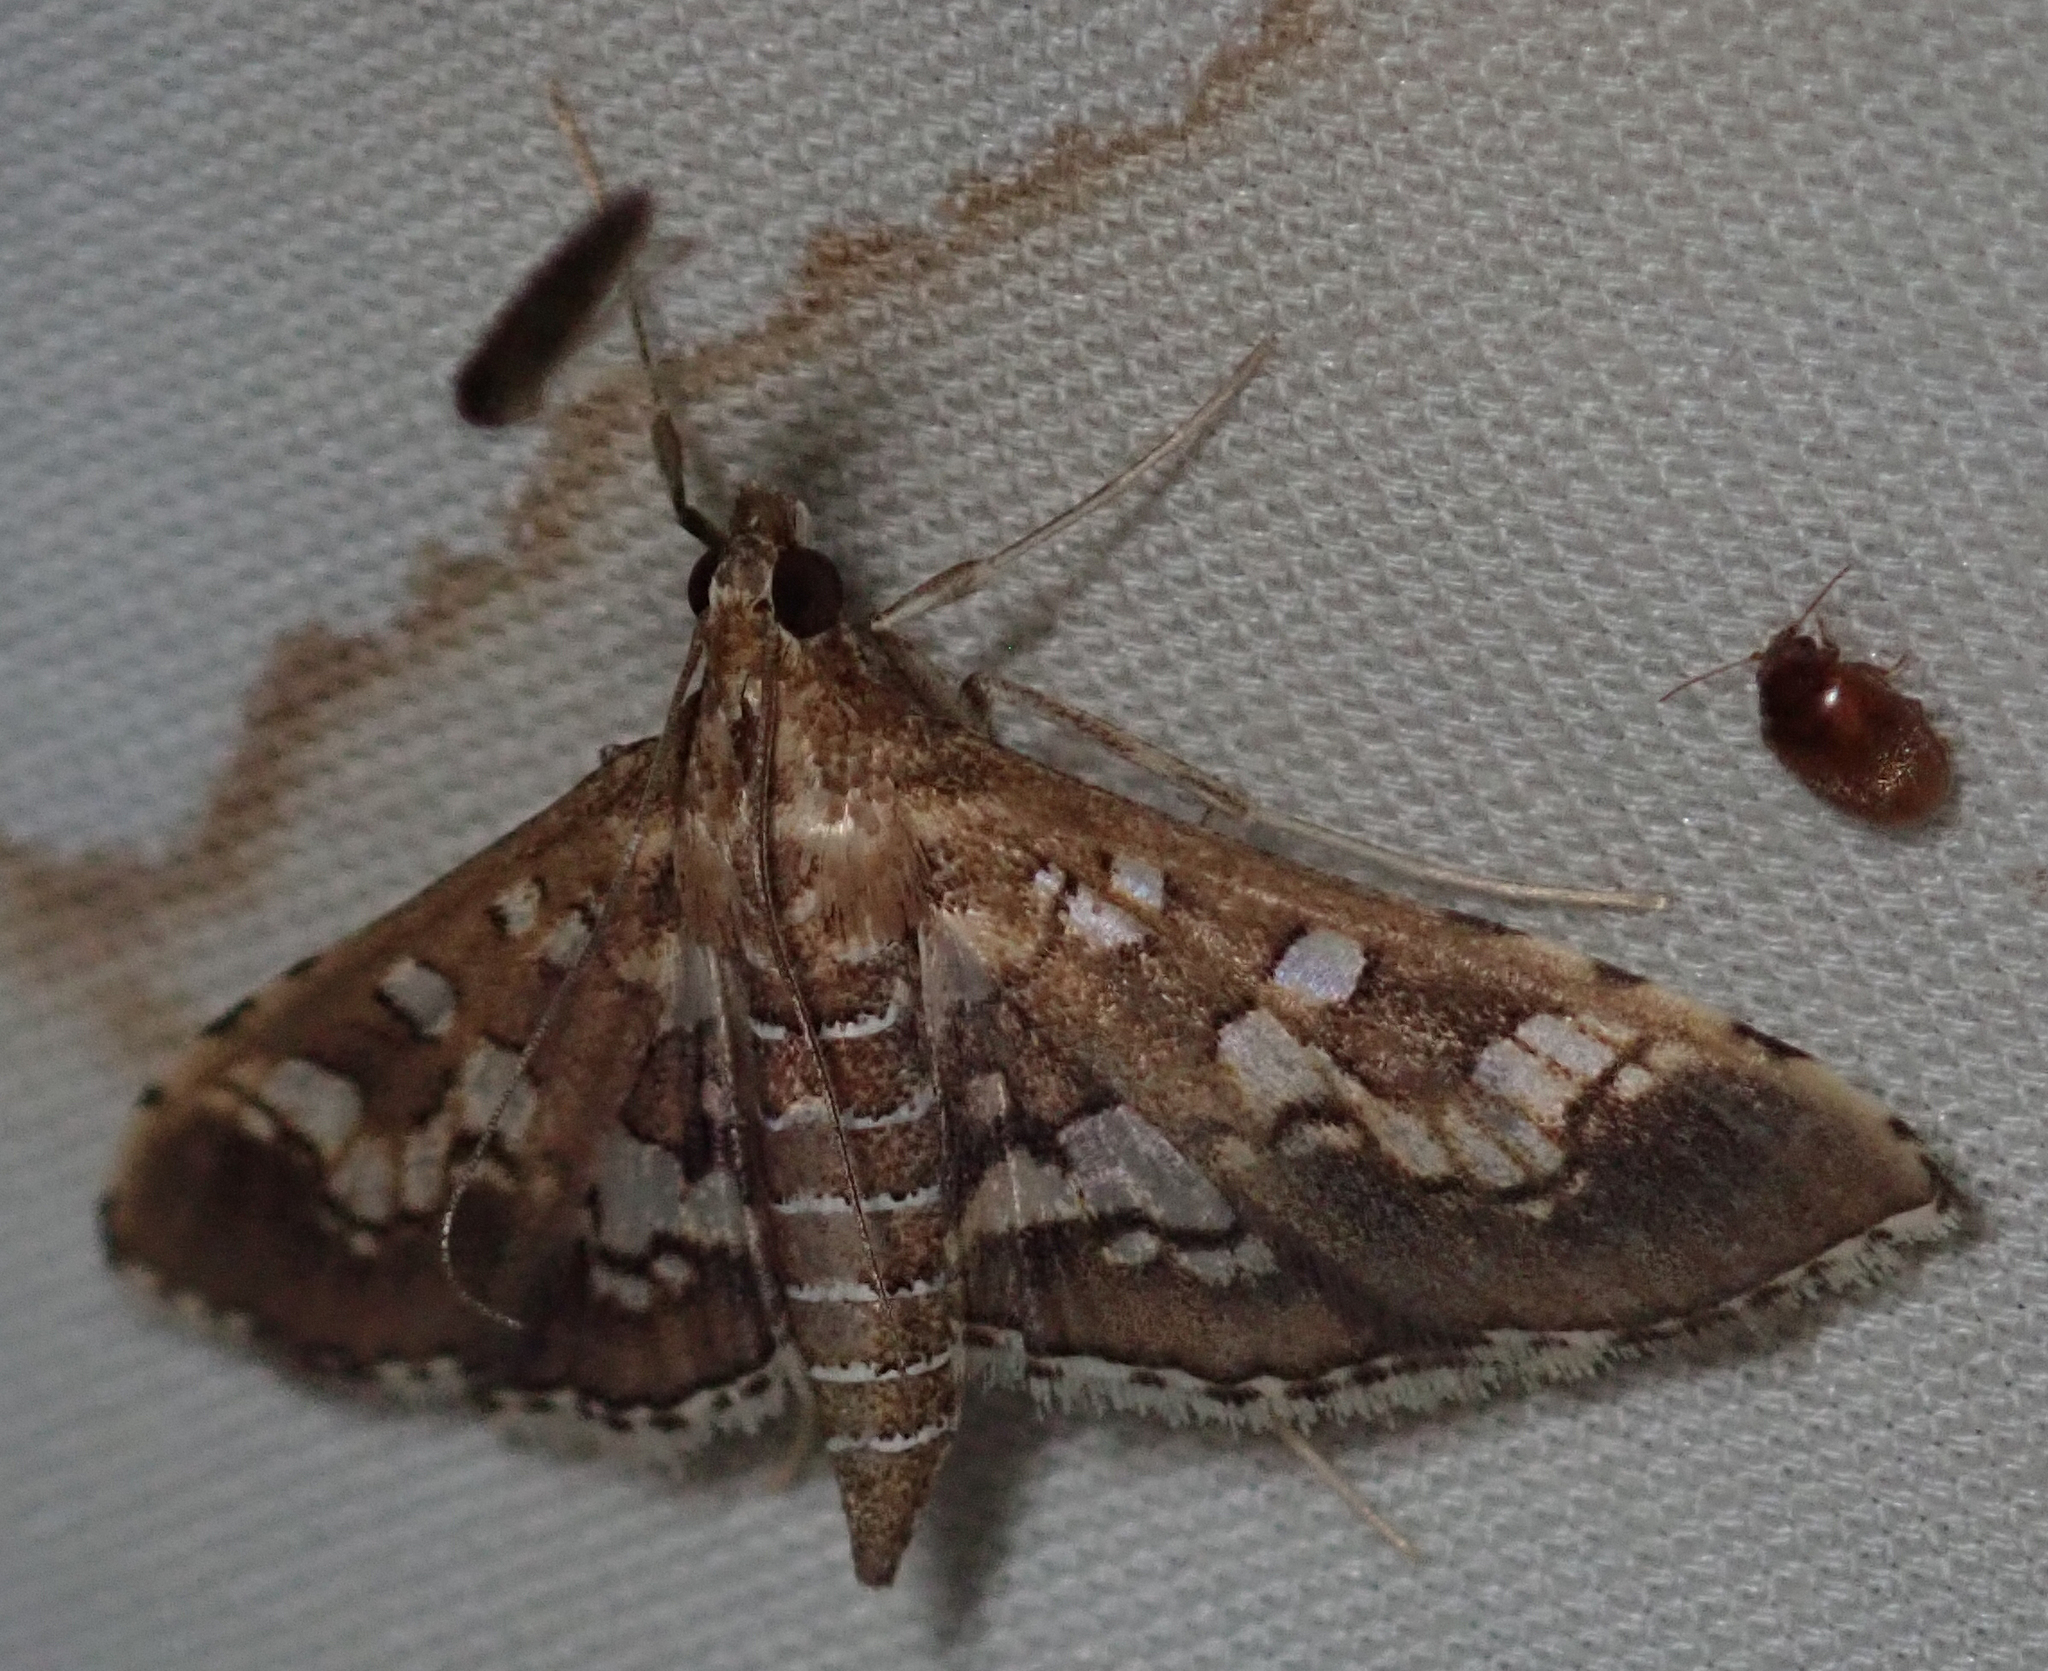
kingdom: Animalia
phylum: Arthropoda
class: Insecta
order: Lepidoptera
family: Crambidae
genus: Sameodes
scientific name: Sameodes cancellalis
